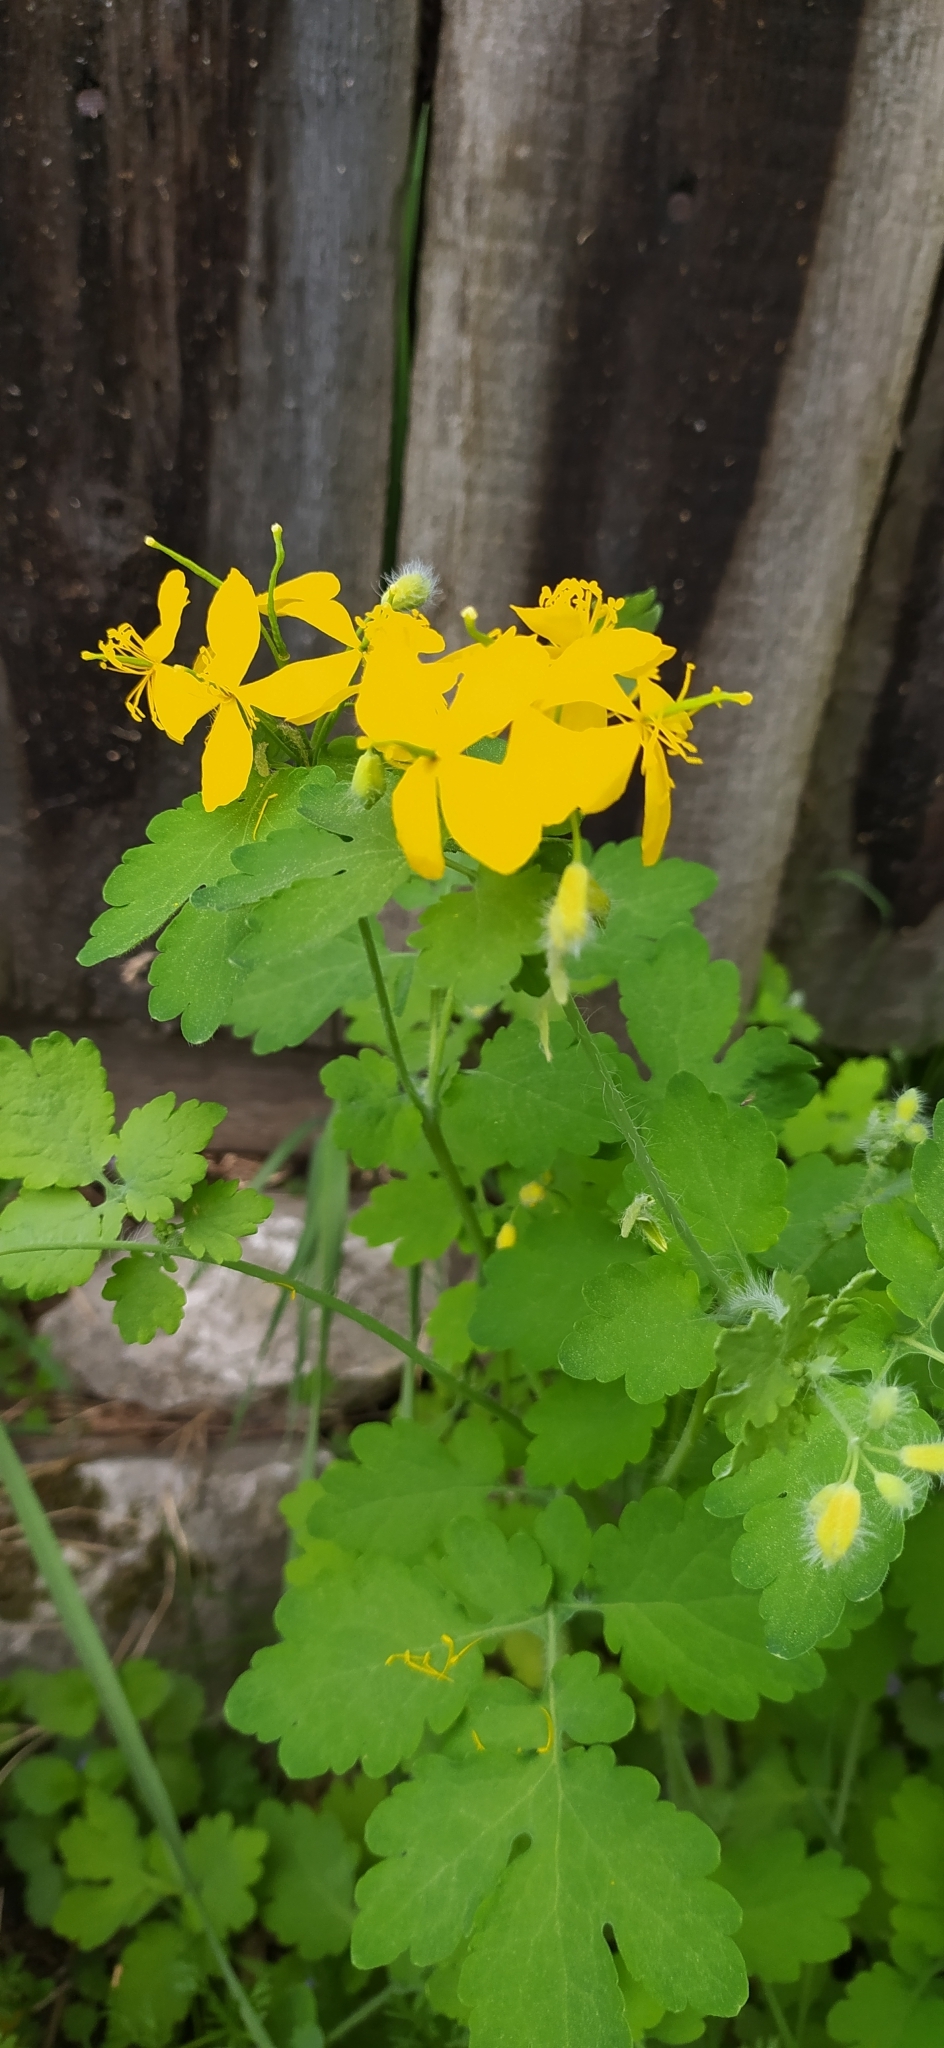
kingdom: Plantae
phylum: Tracheophyta
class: Magnoliopsida
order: Ranunculales
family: Papaveraceae
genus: Chelidonium
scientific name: Chelidonium majus
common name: Greater celandine
